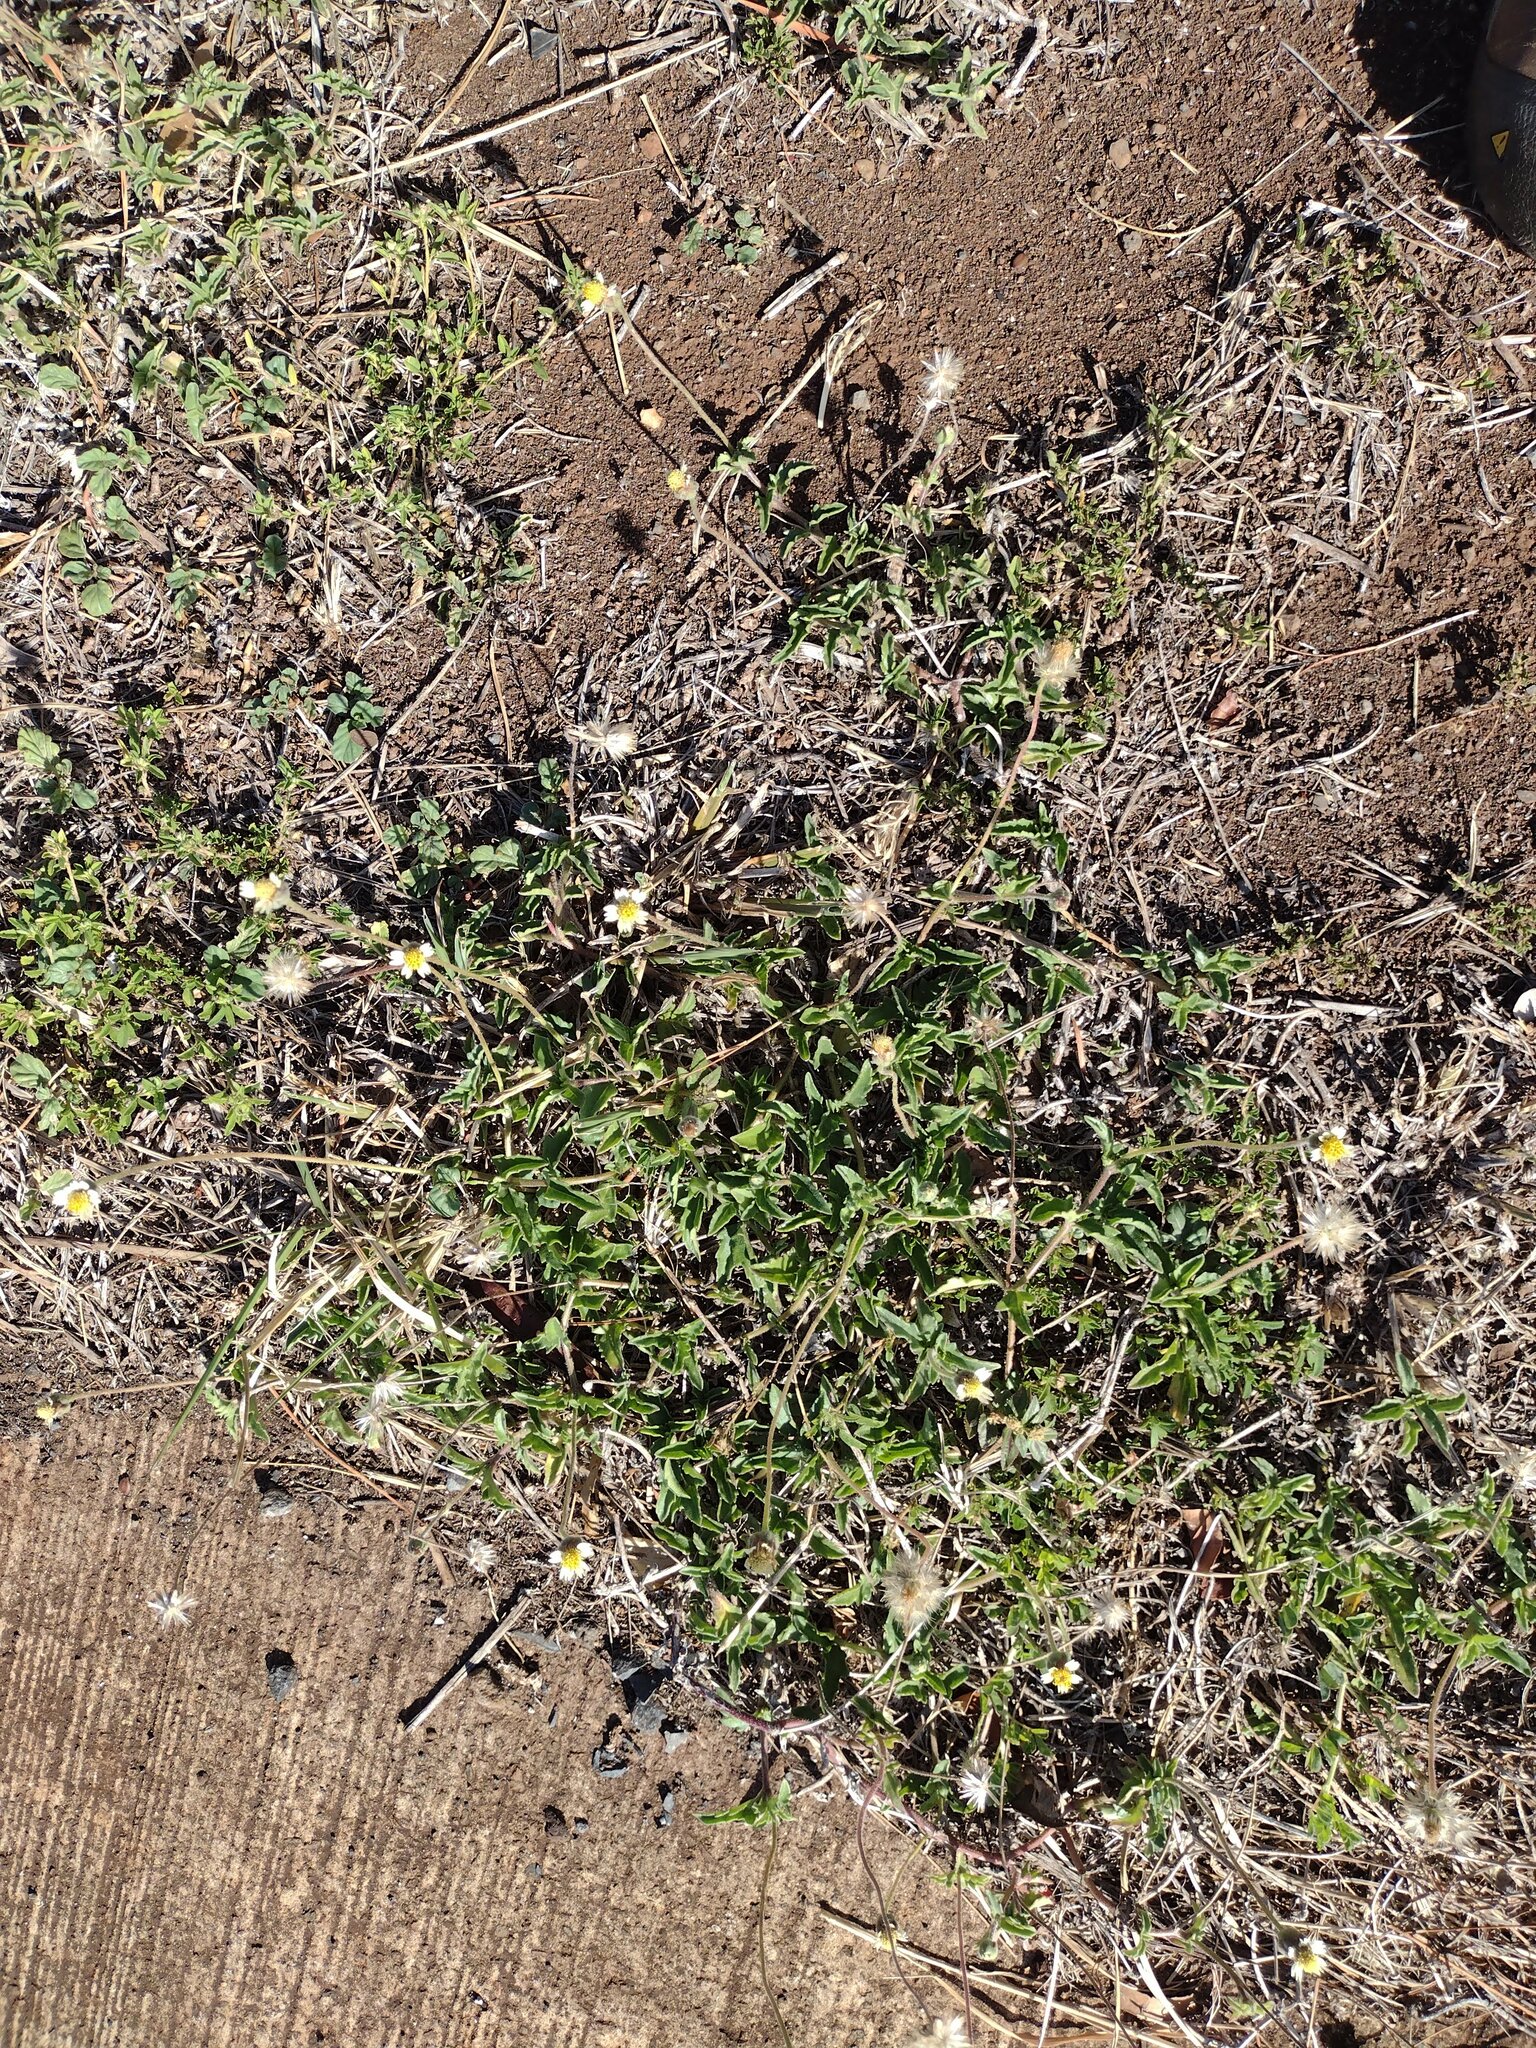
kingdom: Plantae
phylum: Tracheophyta
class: Magnoliopsida
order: Asterales
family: Asteraceae
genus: Tridax
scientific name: Tridax procumbens
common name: Coatbuttons
